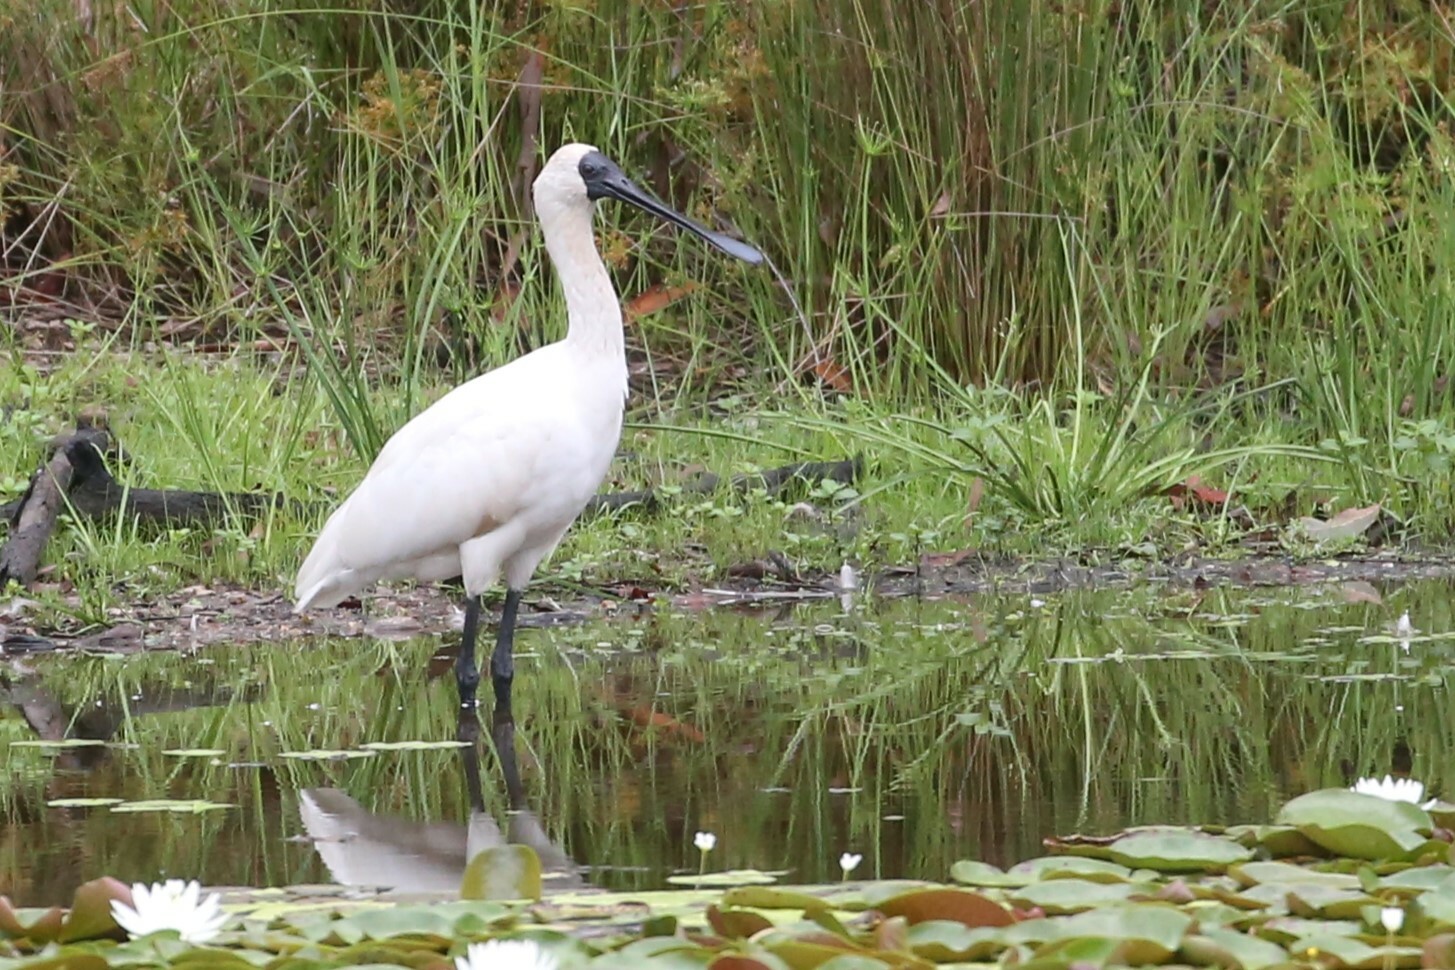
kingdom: Animalia
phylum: Chordata
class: Aves
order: Pelecaniformes
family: Threskiornithidae
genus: Platalea
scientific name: Platalea regia
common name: Royal spoonbill
